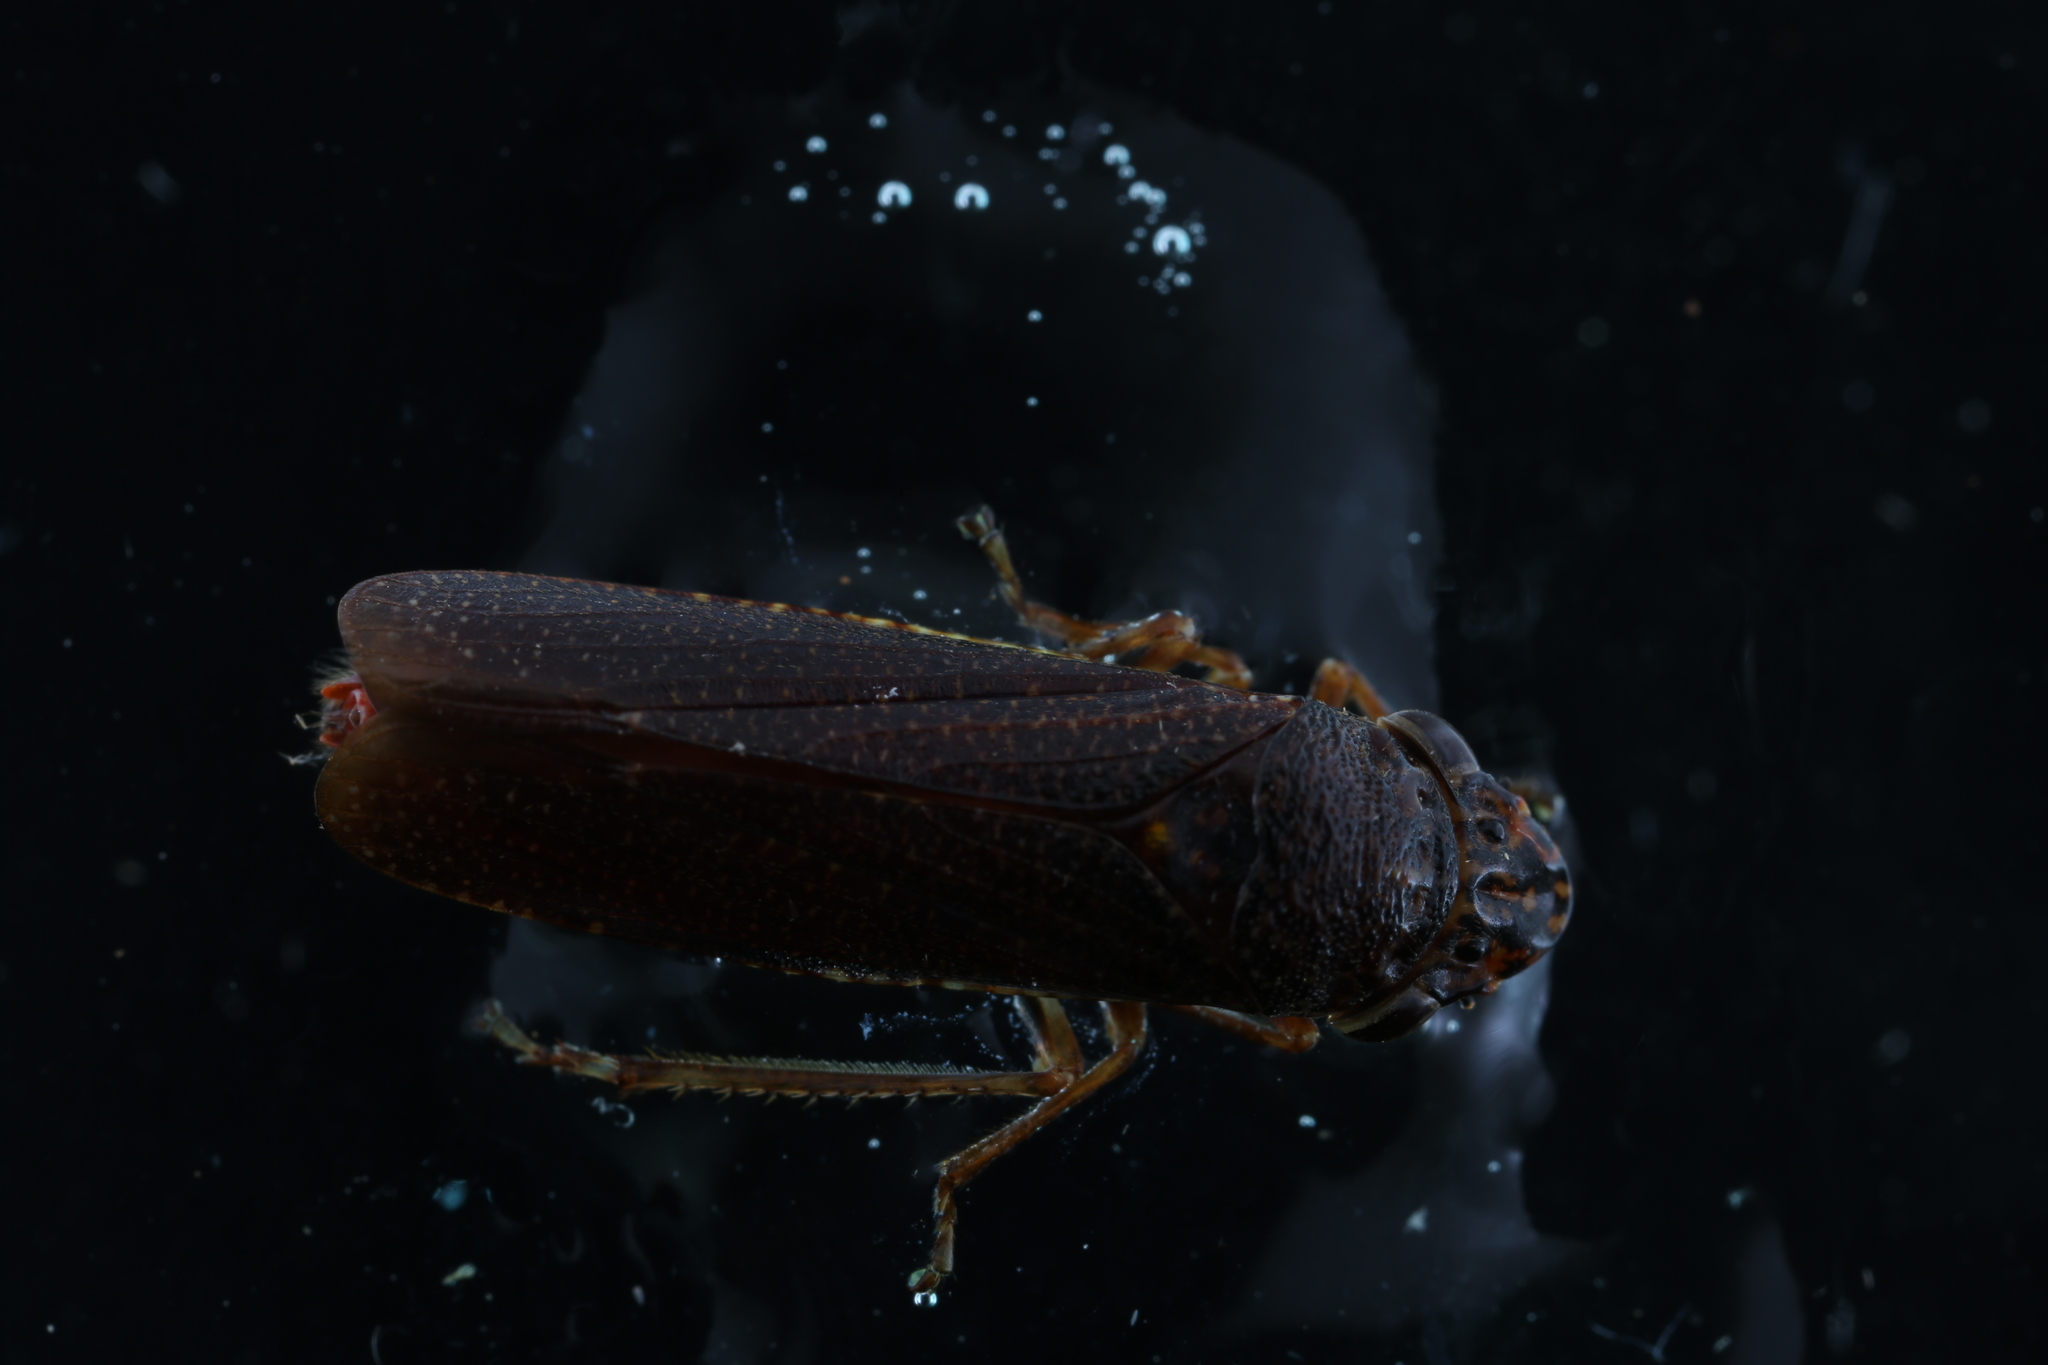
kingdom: Animalia
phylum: Arthropoda
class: Insecta
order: Hemiptera
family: Cicadellidae
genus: Paraulacizes
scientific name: Paraulacizes irrorata
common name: Speckled sharpshooter
